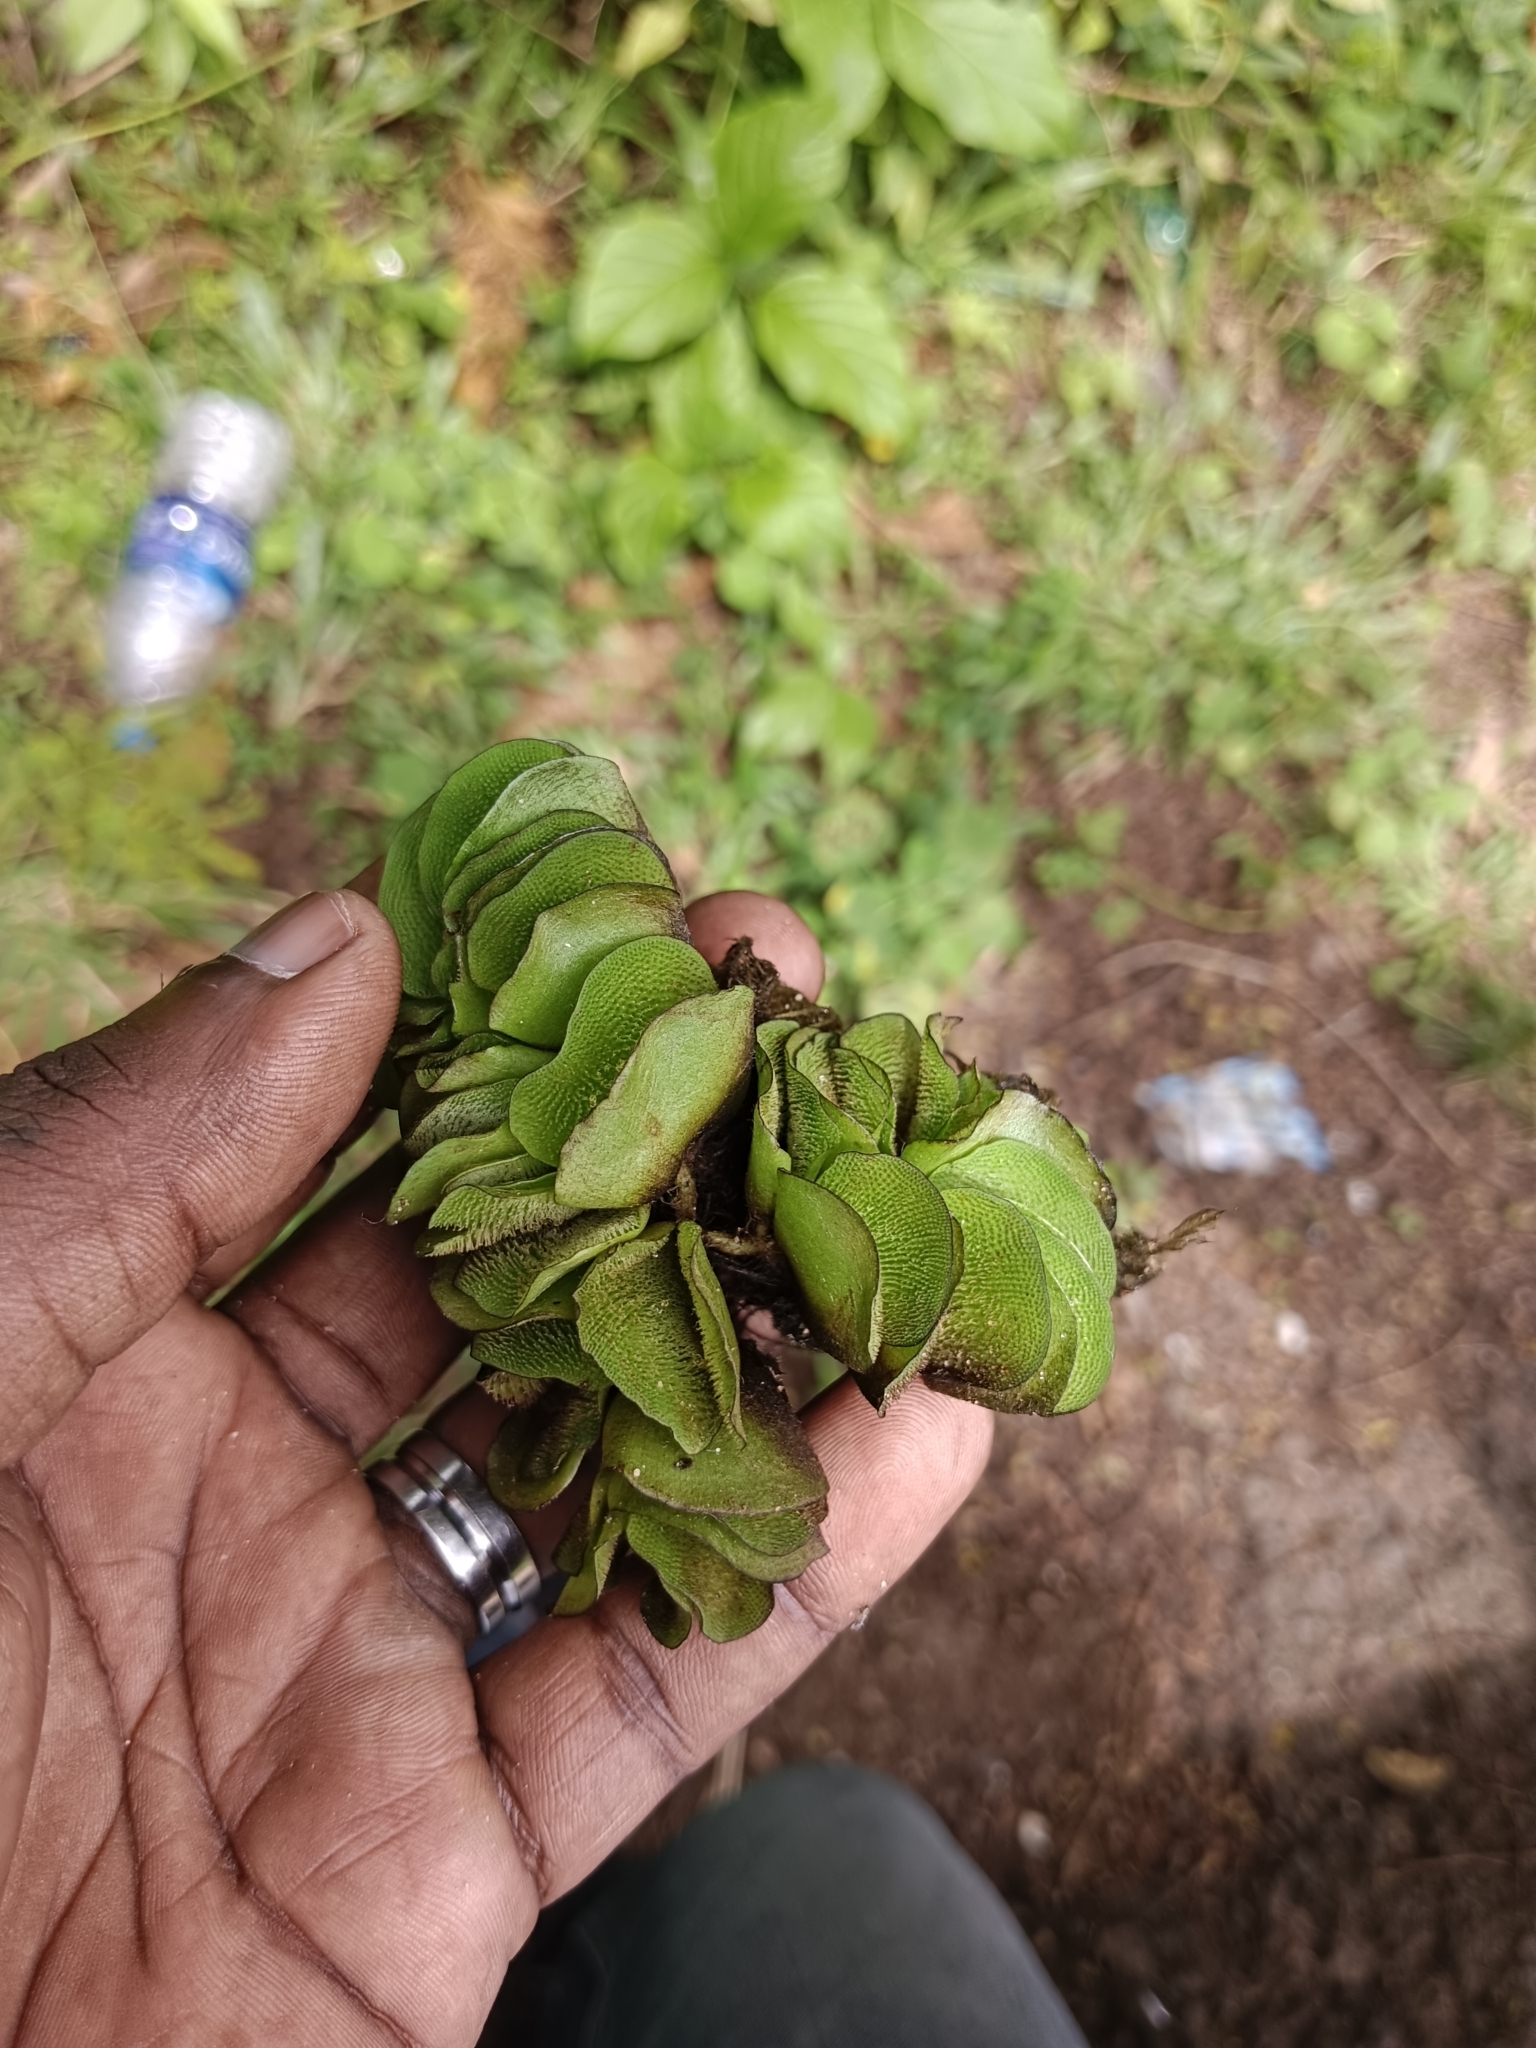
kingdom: Plantae
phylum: Tracheophyta
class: Polypodiopsida
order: Salviniales
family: Salviniaceae
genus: Salvinia
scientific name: Salvinia molesta
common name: Kariba weed
